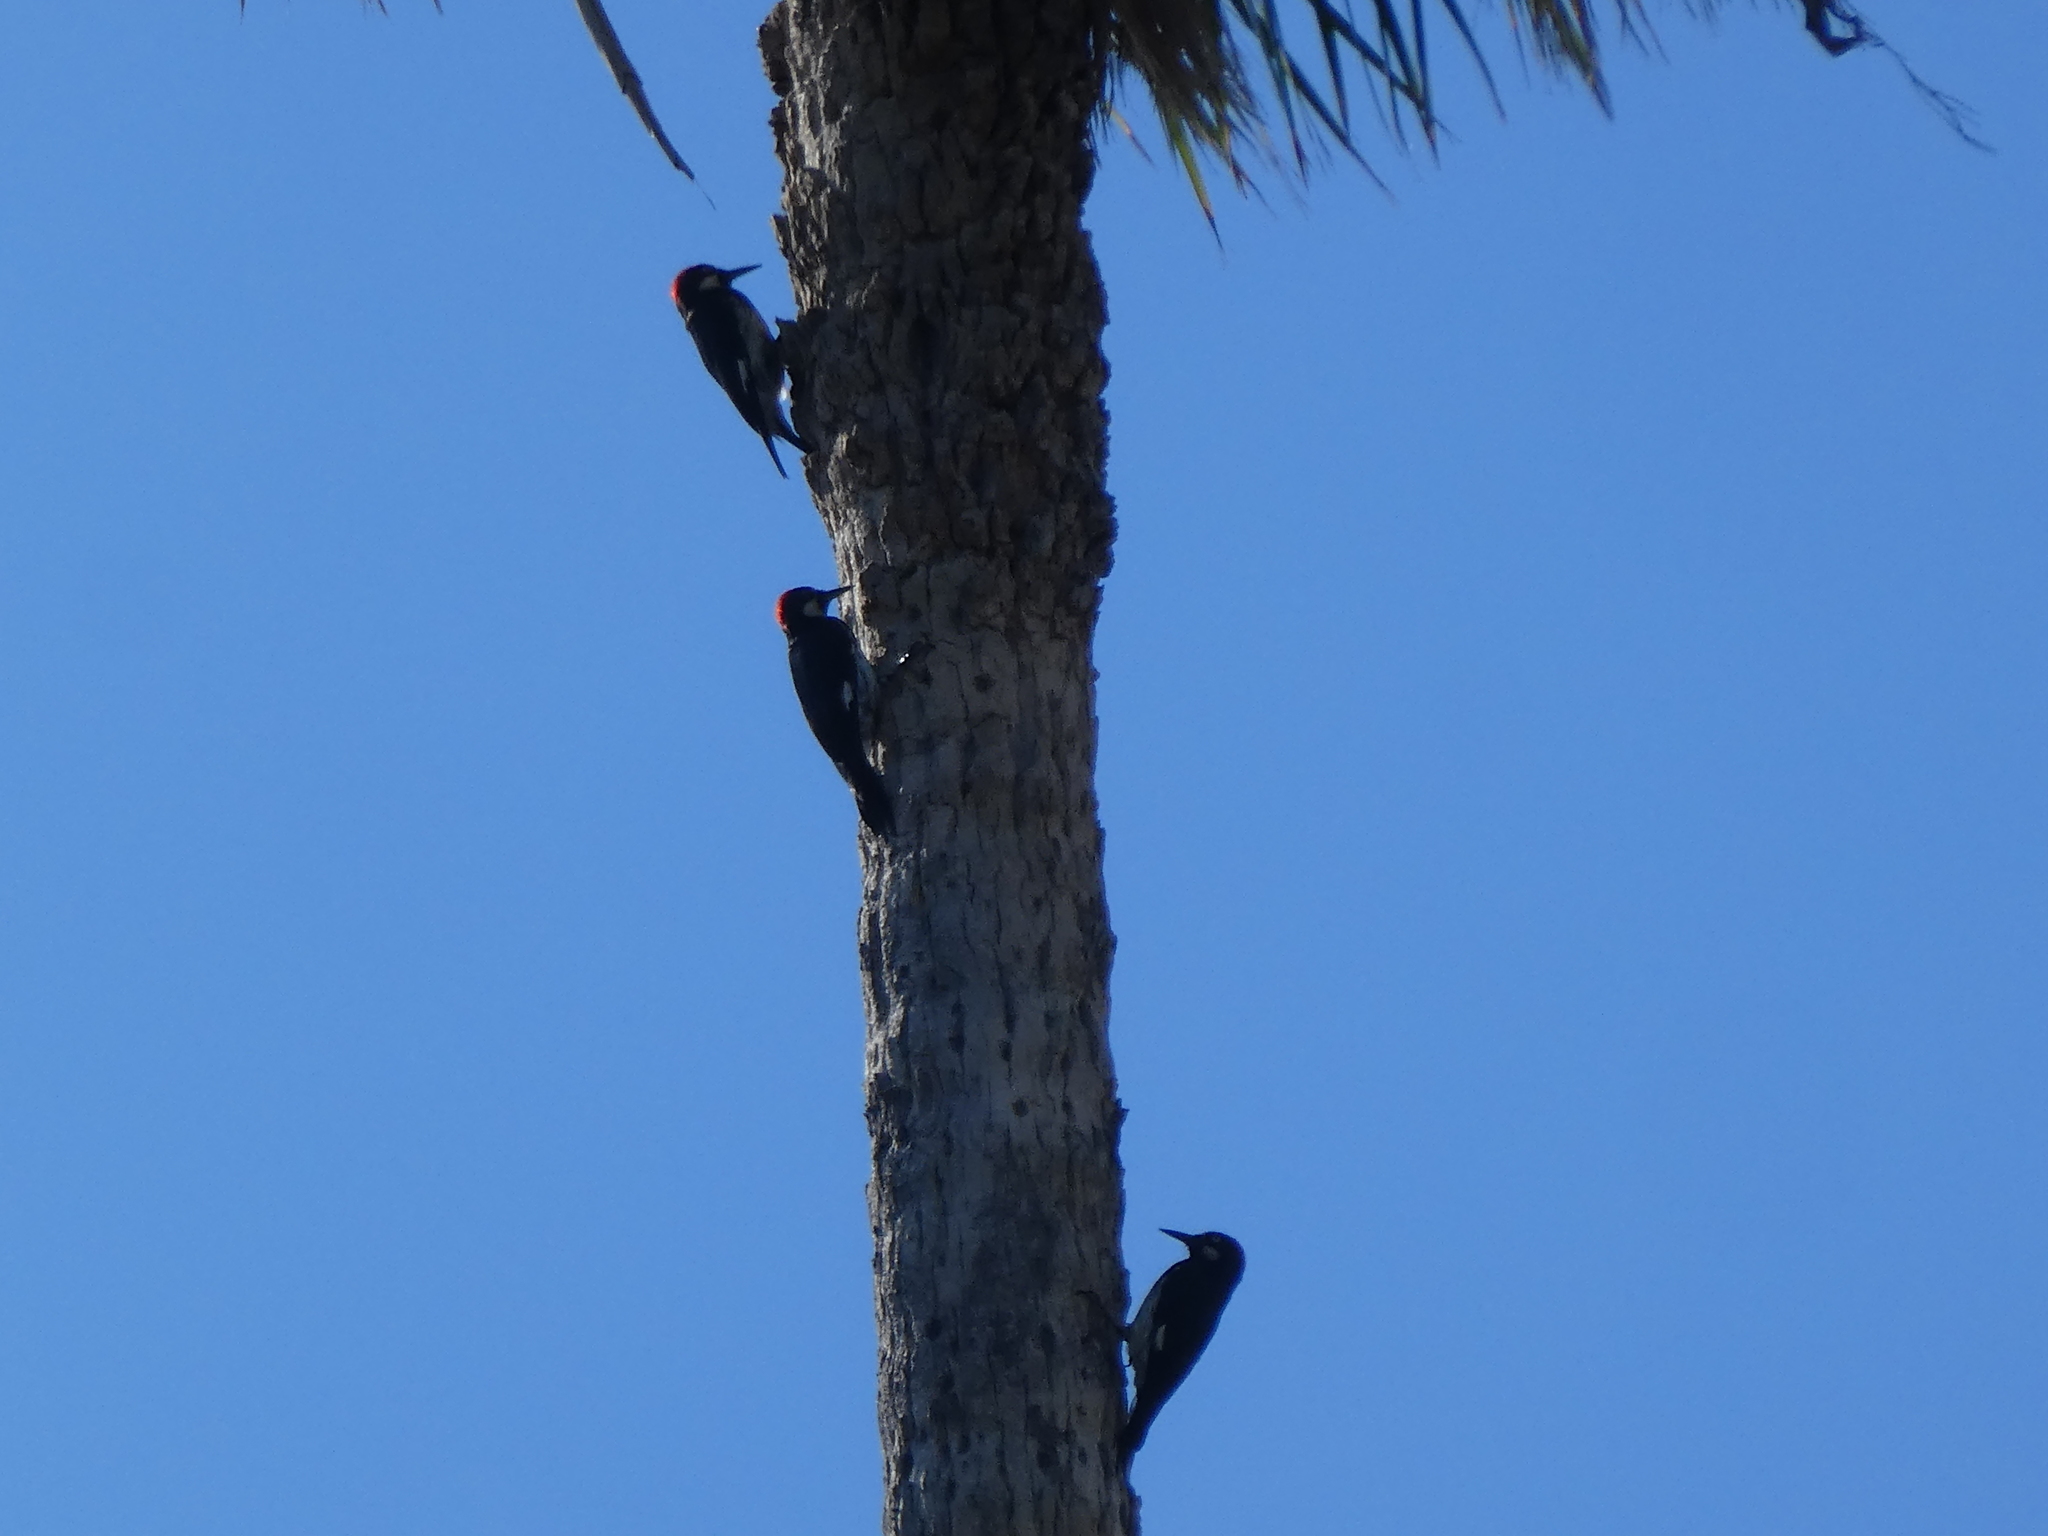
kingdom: Animalia
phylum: Chordata
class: Aves
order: Piciformes
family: Picidae
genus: Melanerpes
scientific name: Melanerpes formicivorus
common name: Acorn woodpecker
